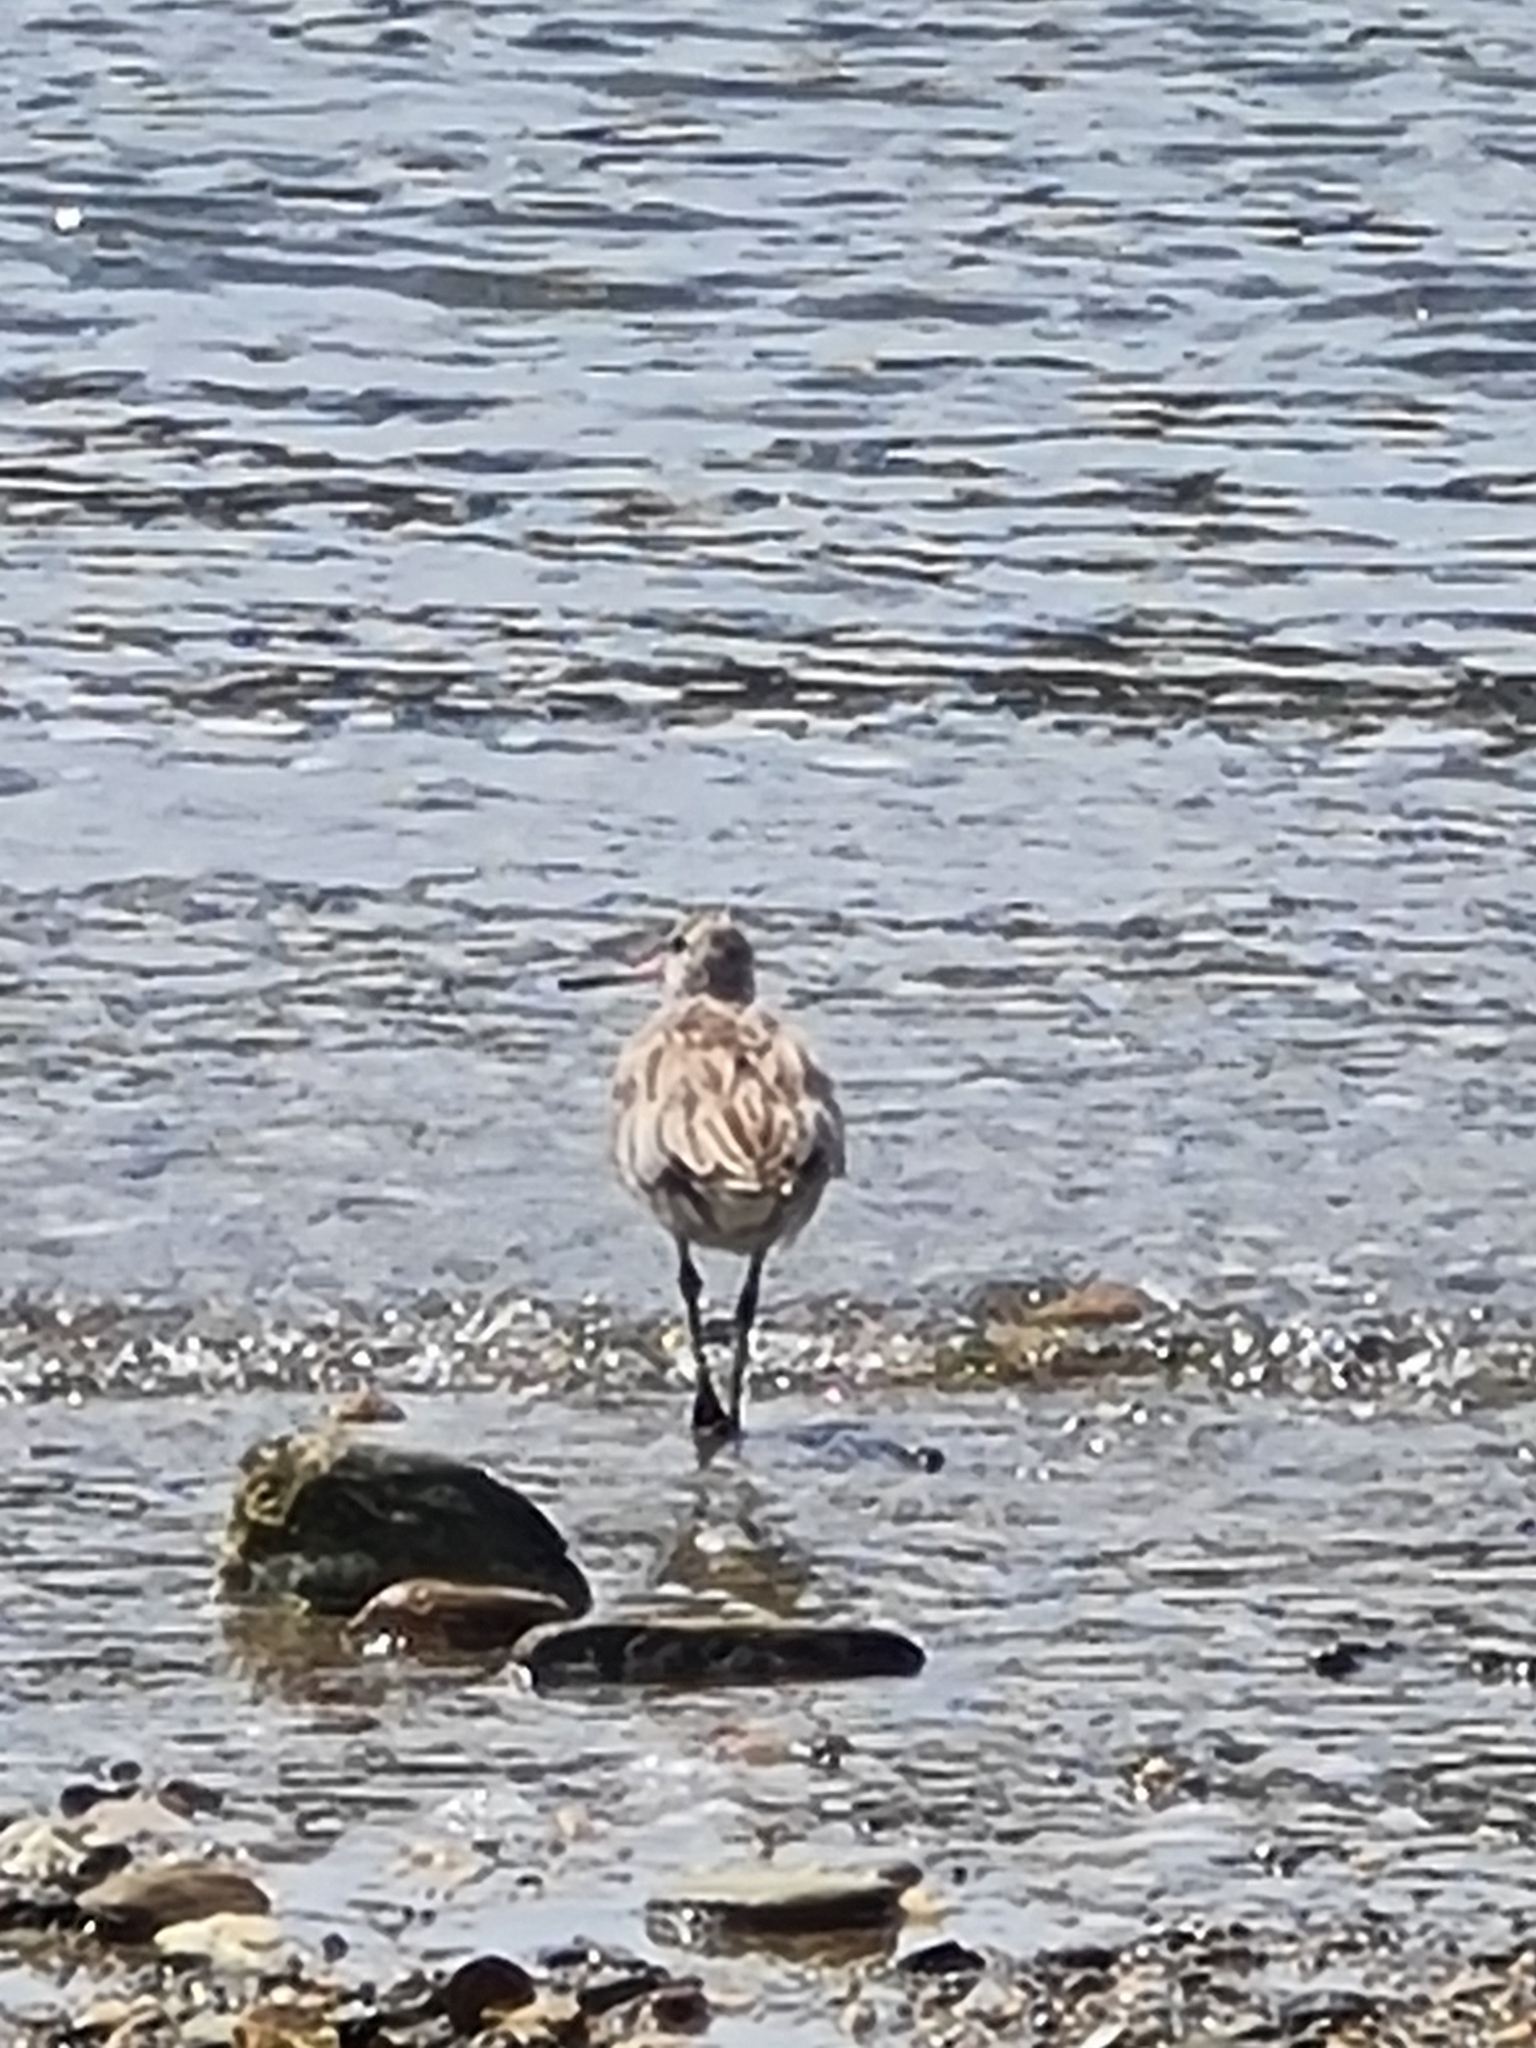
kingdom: Animalia
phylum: Chordata
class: Aves
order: Charadriiformes
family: Scolopacidae
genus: Limosa
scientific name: Limosa lapponica
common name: Bar-tailed godwit
